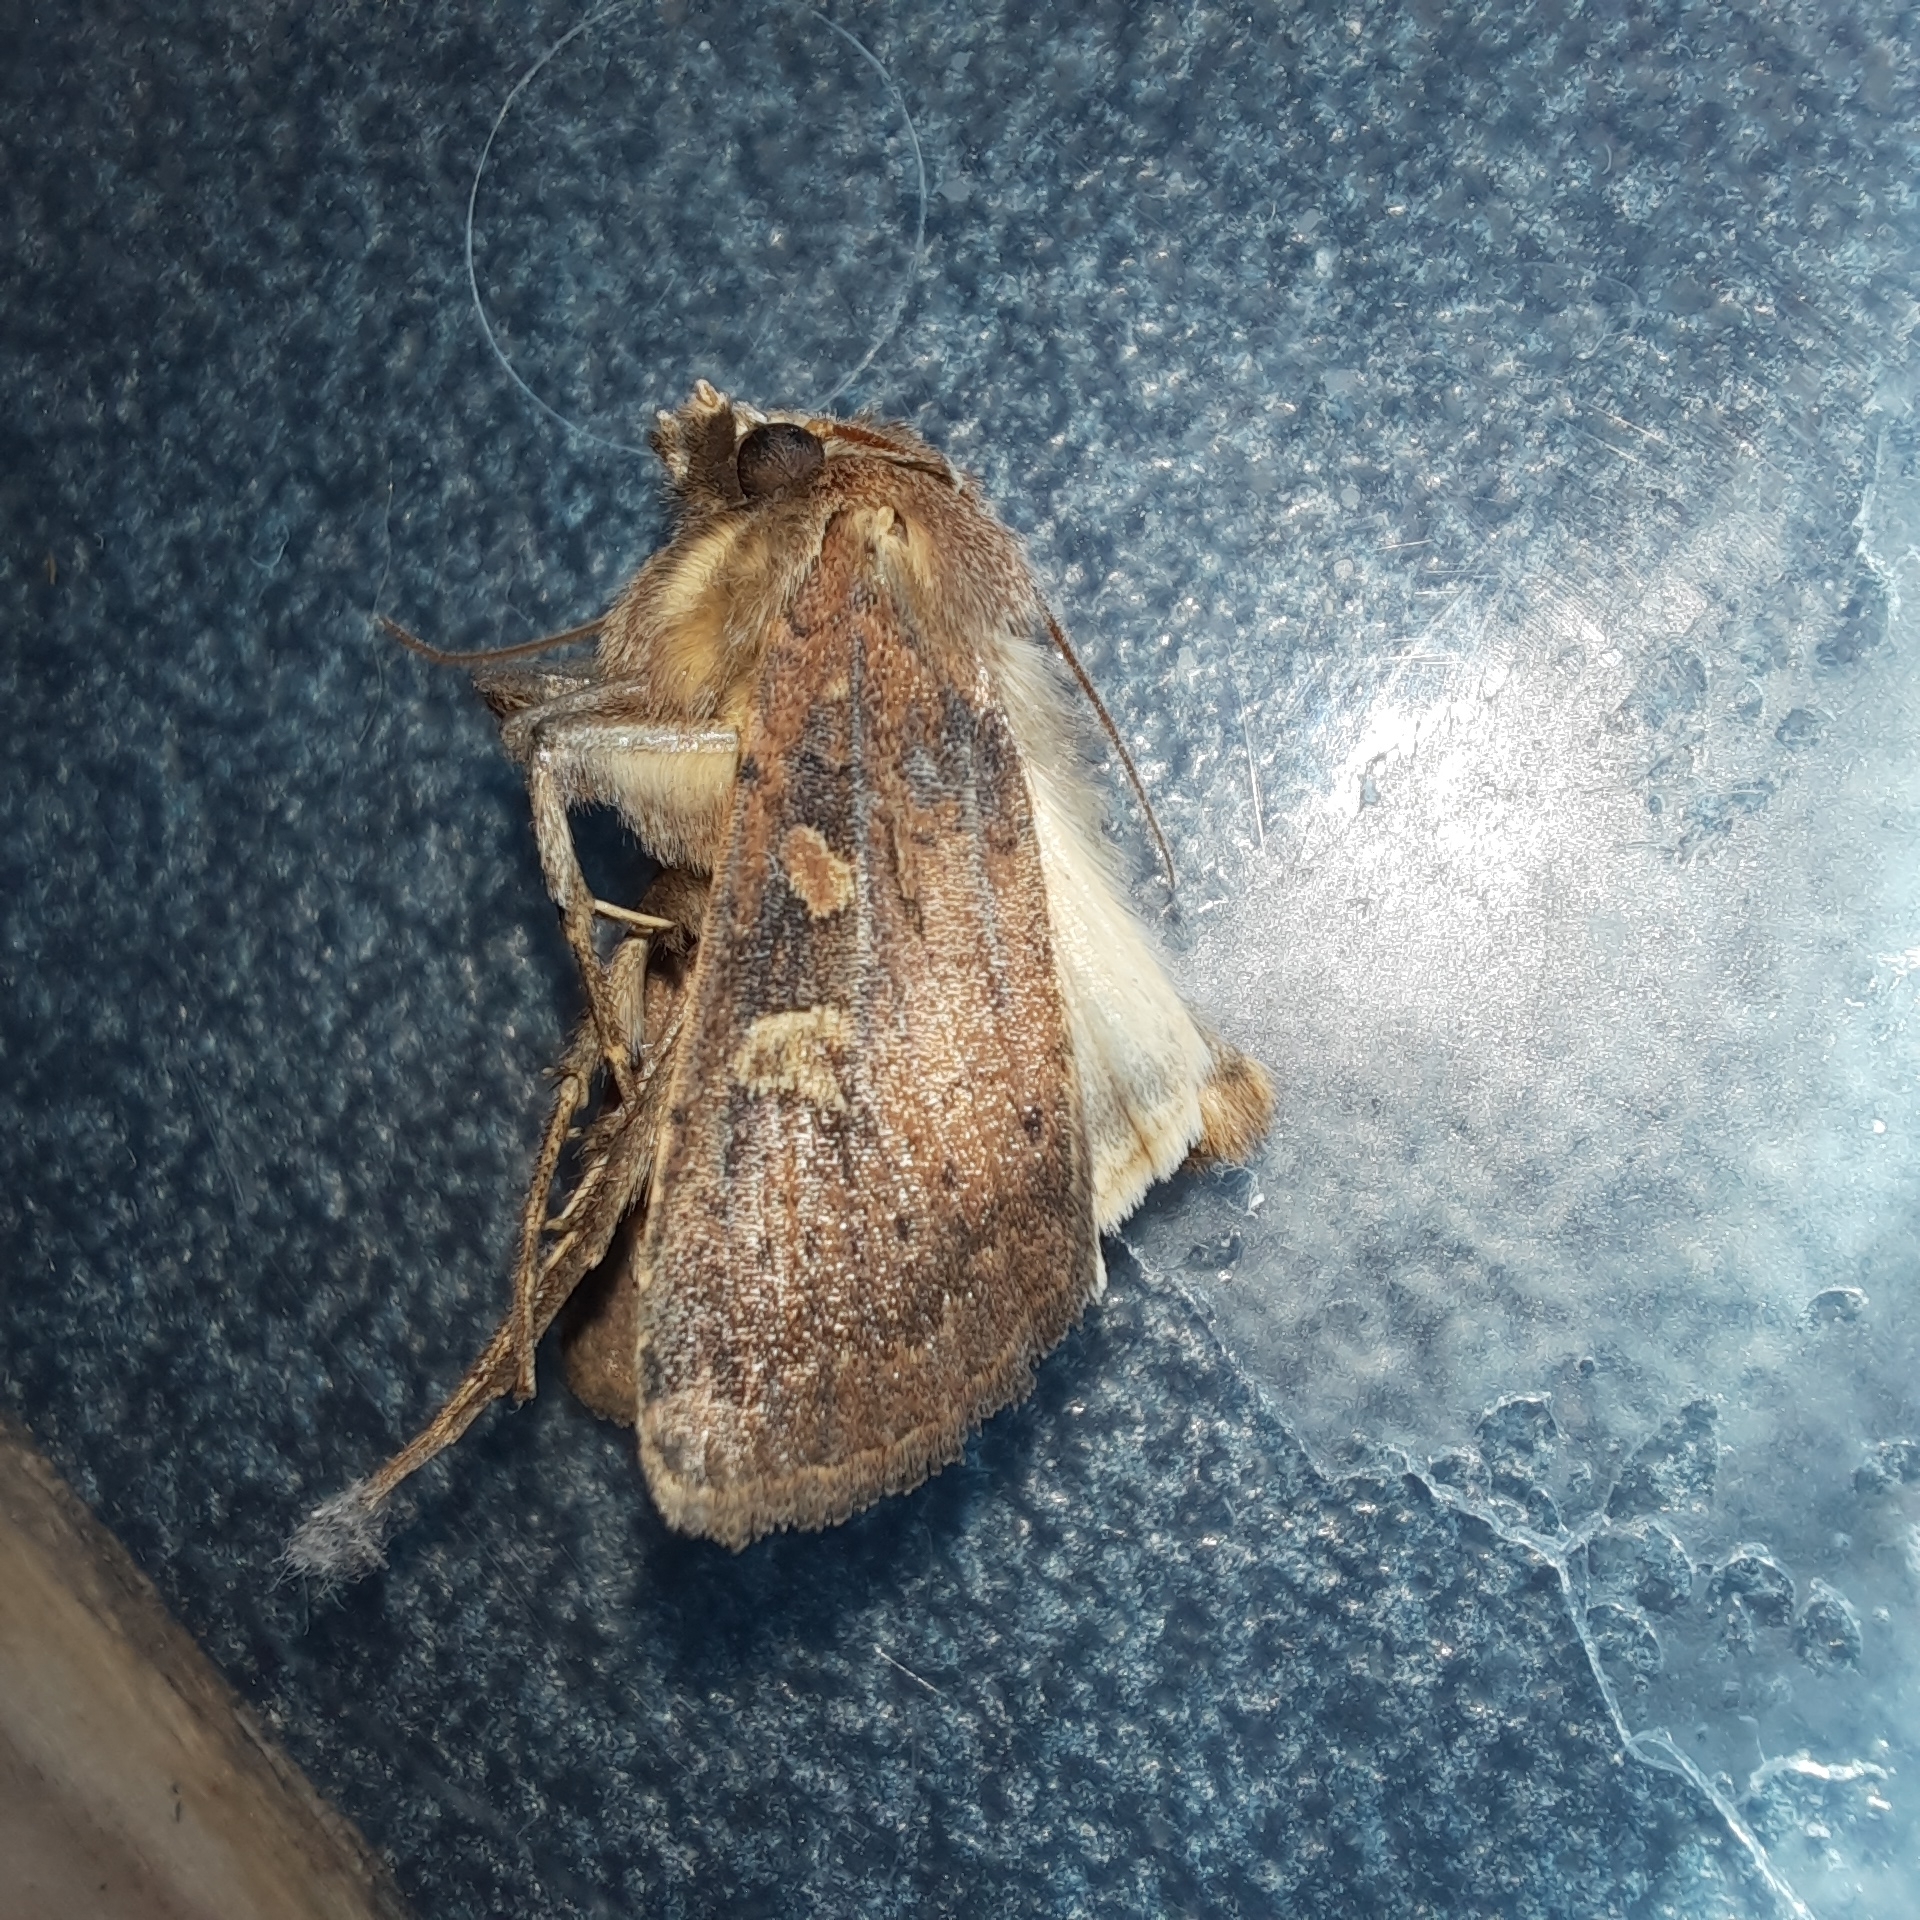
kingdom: Animalia
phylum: Arthropoda
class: Insecta
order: Lepidoptera
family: Noctuidae
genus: Xestia
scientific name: Xestia xanthographa
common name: Square-spot rustic
